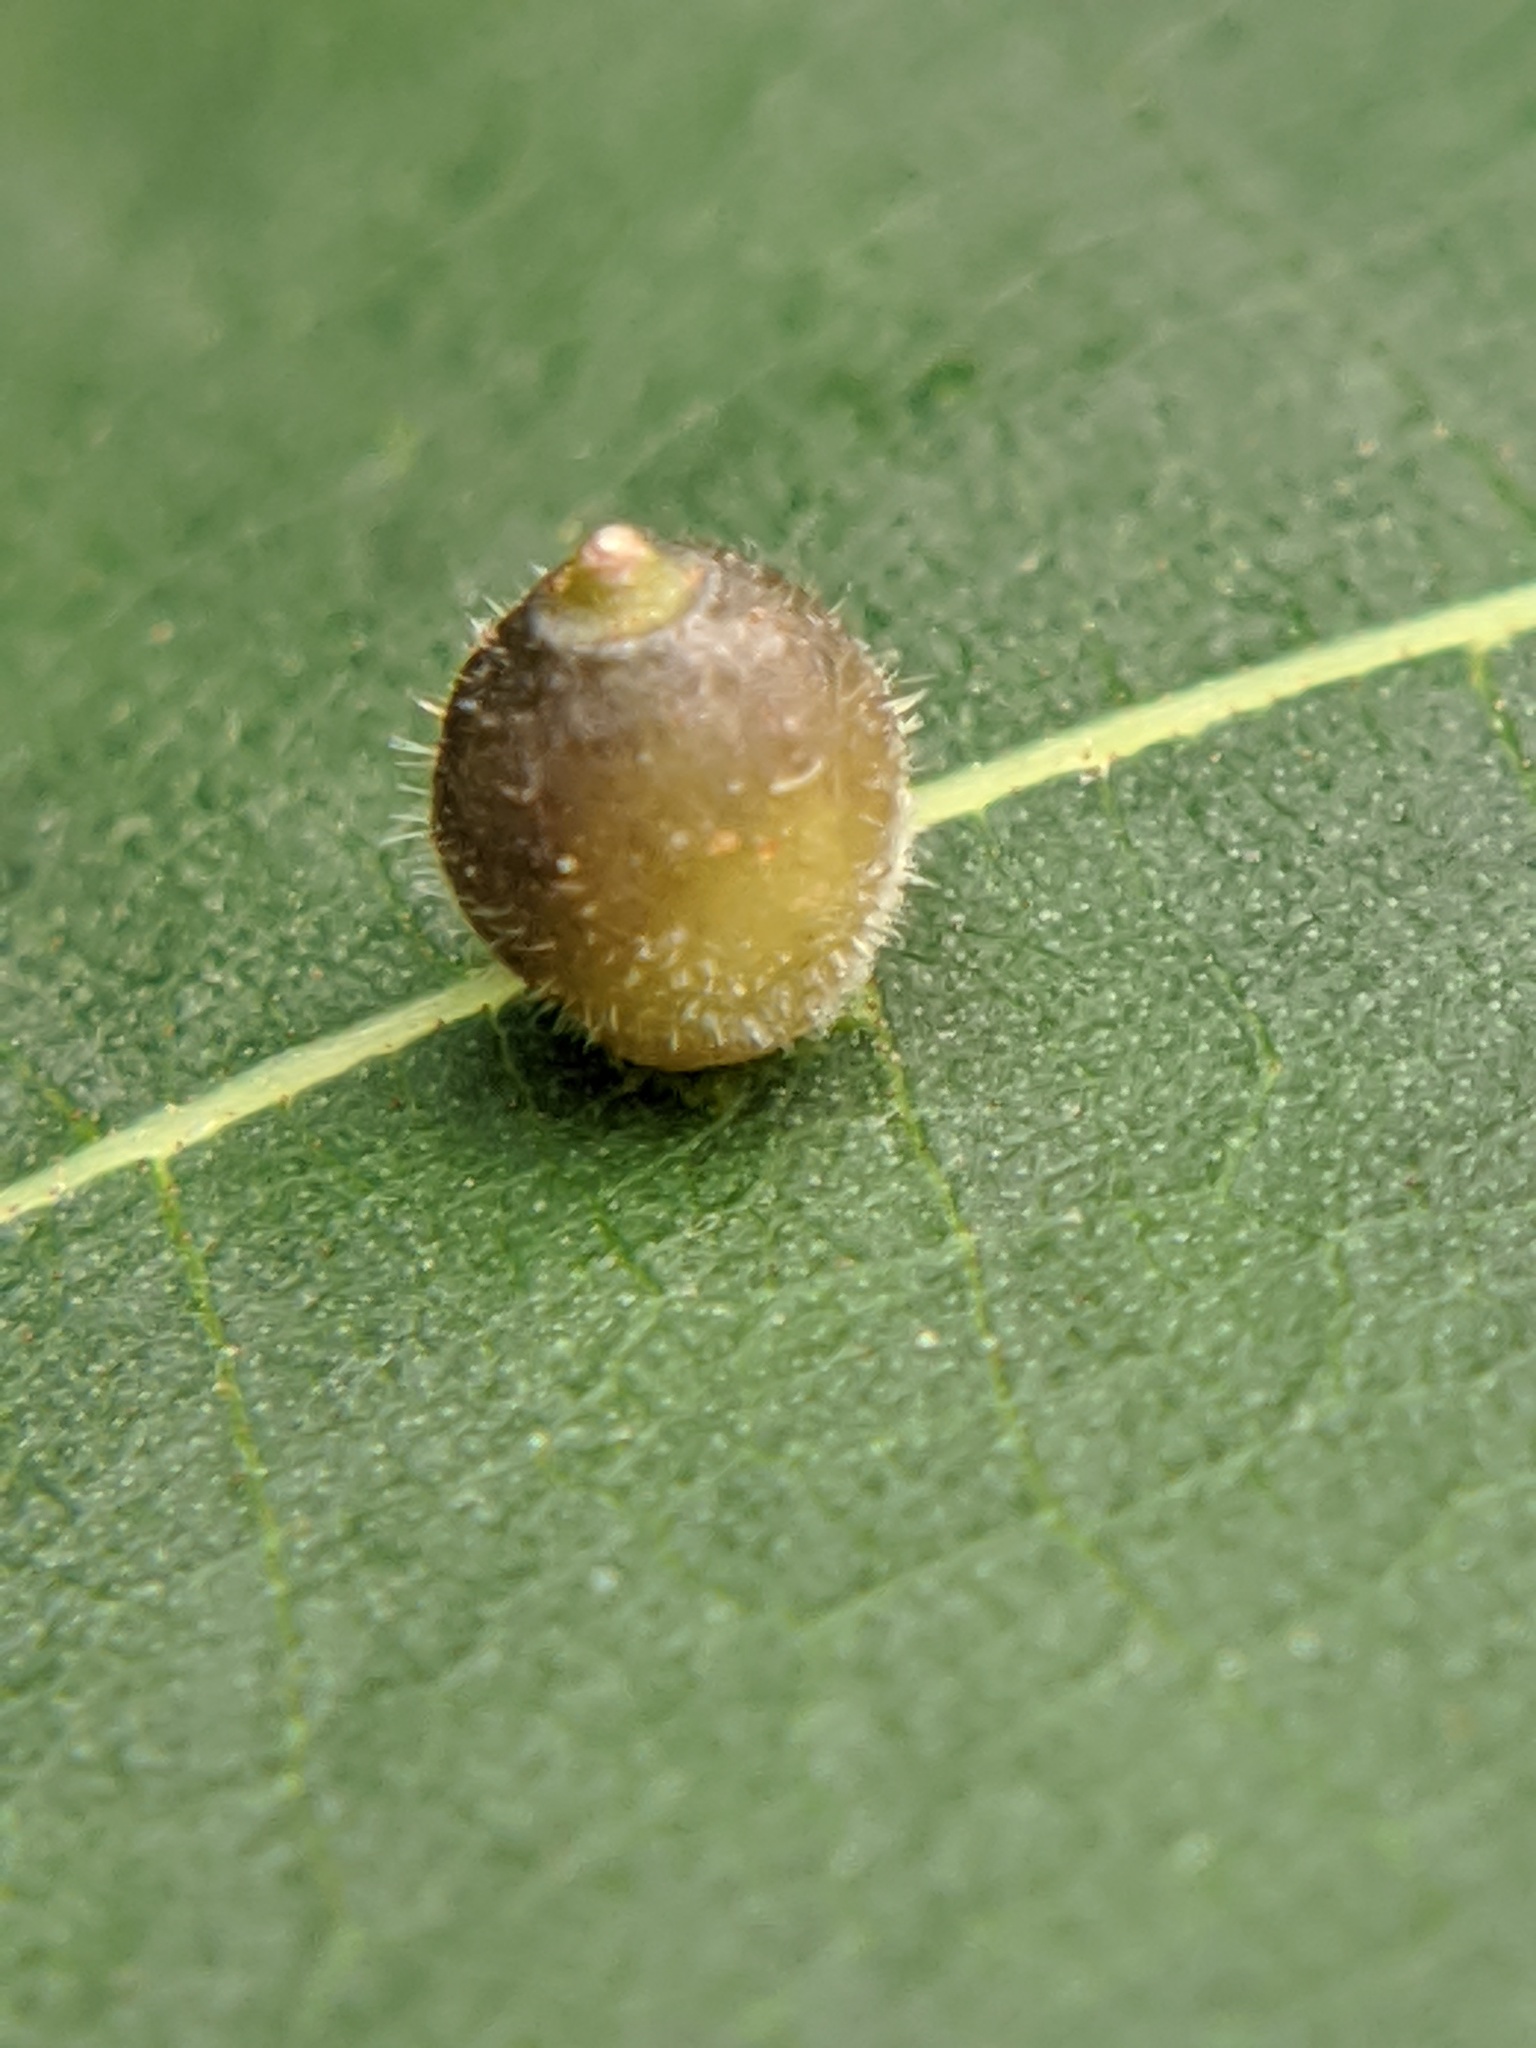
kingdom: Animalia
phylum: Arthropoda
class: Insecta
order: Diptera
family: Cecidomyiidae
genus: Caryomyia
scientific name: Caryomyia viscidolium
